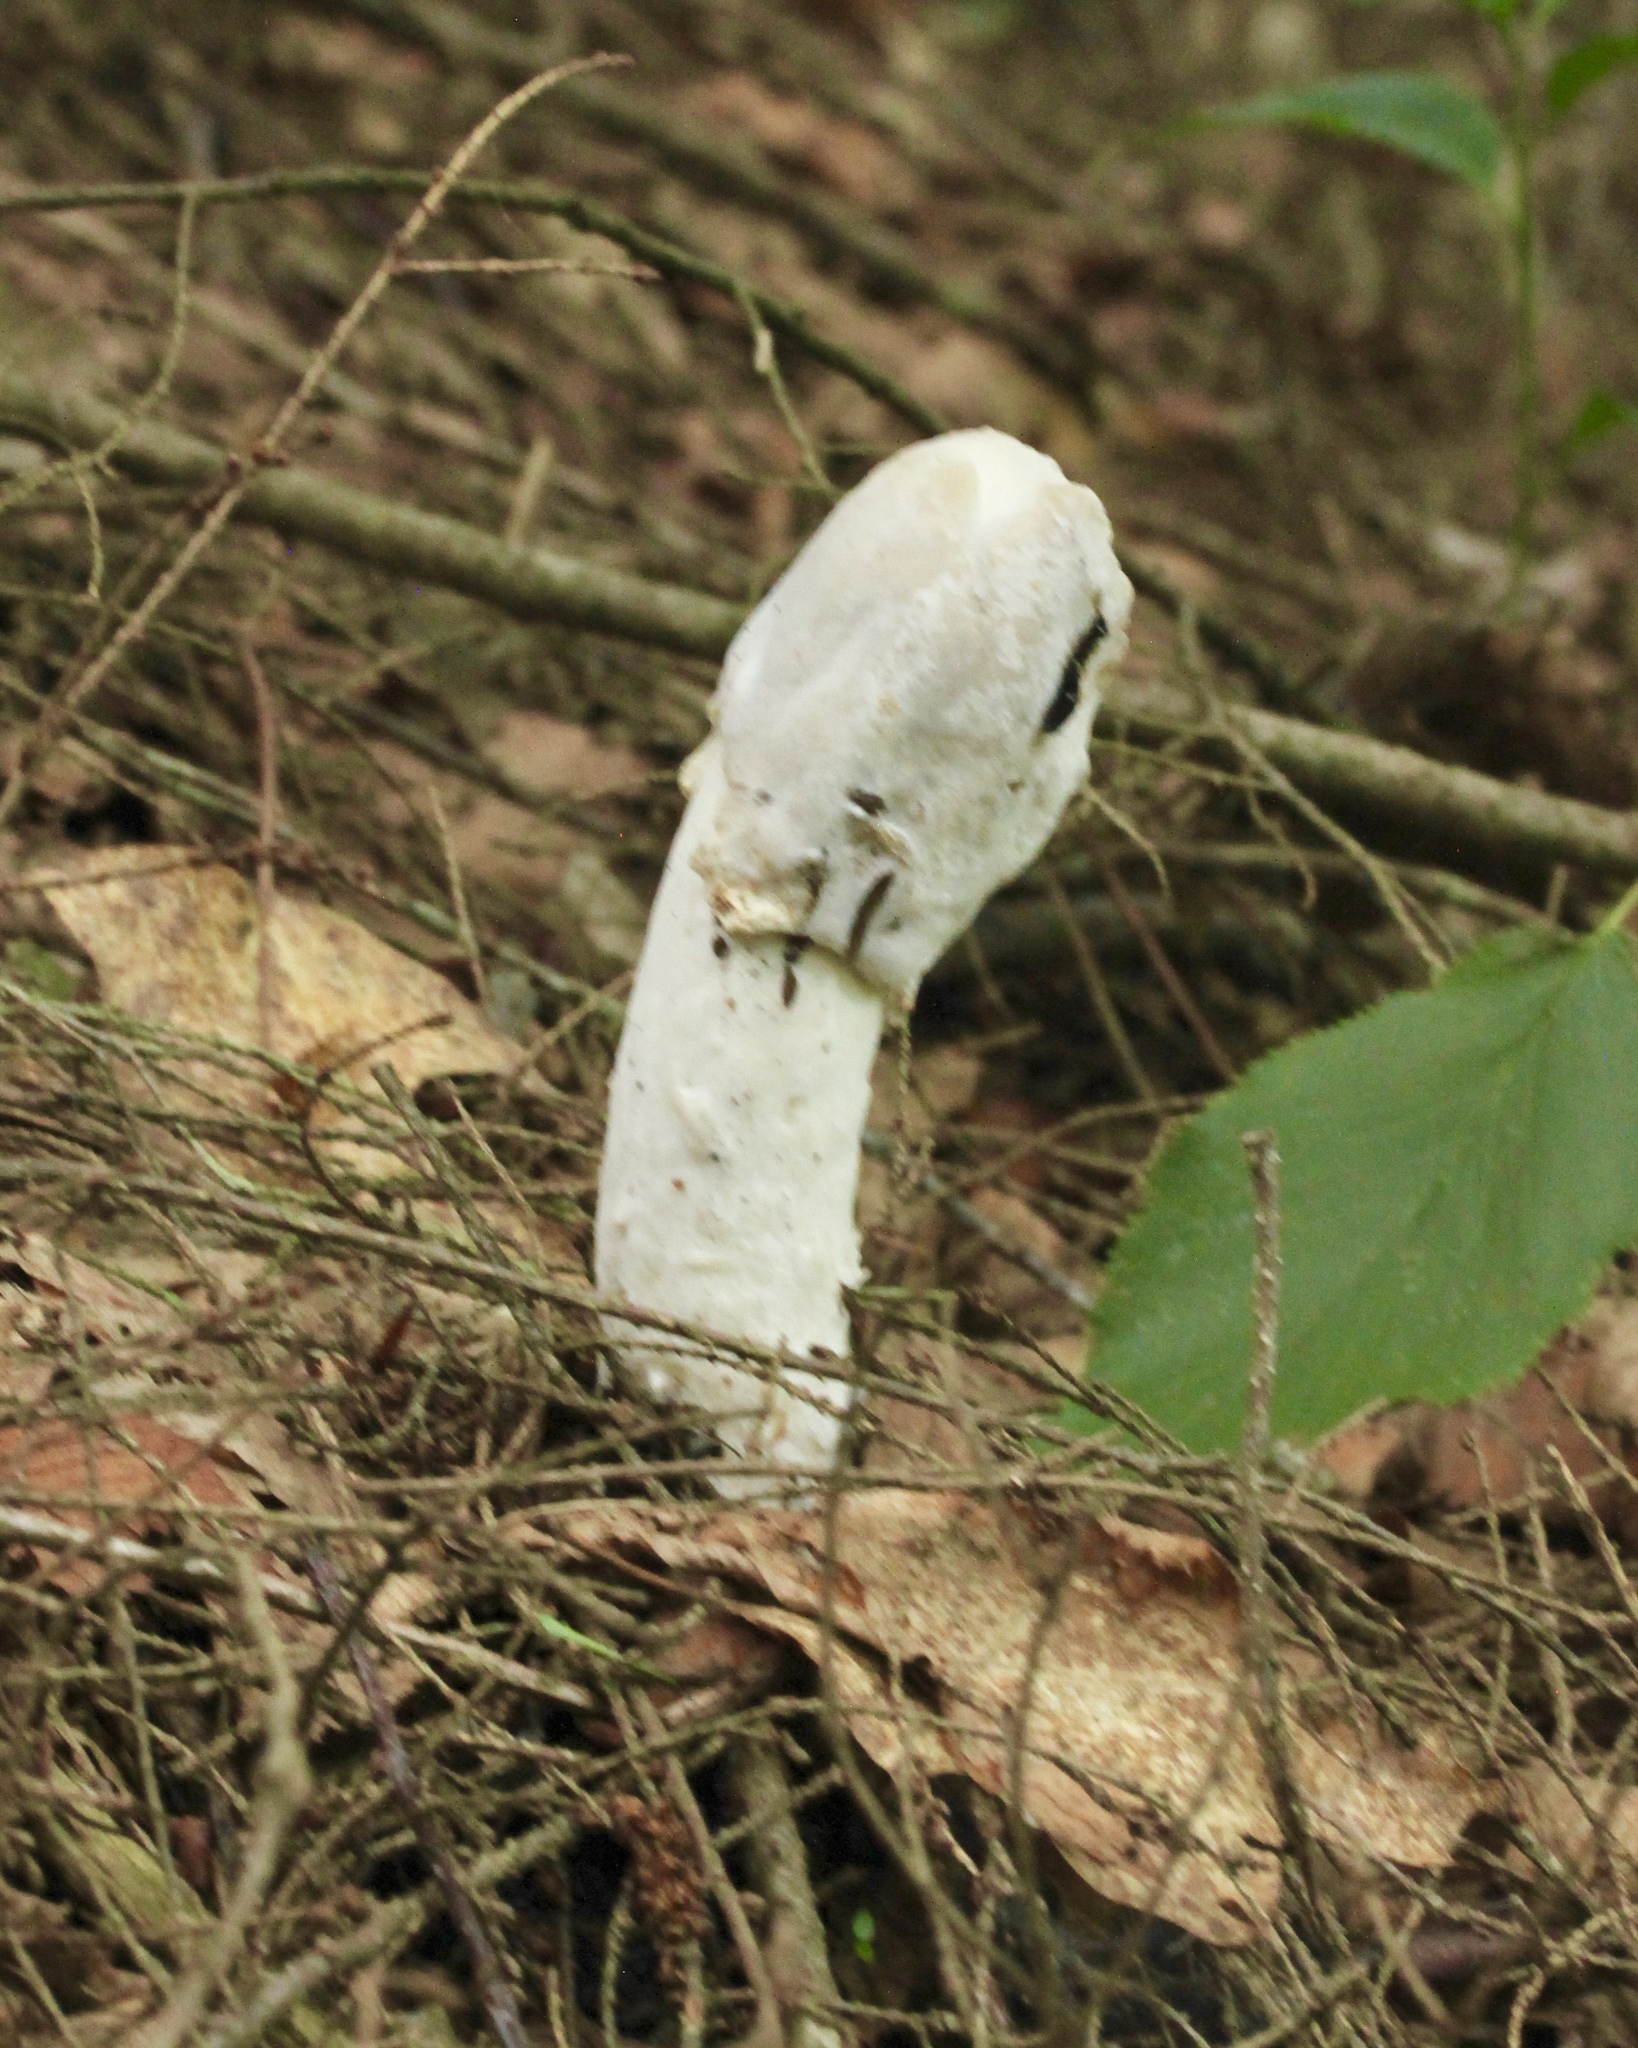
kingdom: Fungi
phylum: Ascomycota
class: Sordariomycetes
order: Hypocreales
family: Hypocreaceae
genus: Hypomyces
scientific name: Hypomyces hyalinus
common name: Amanita mold
